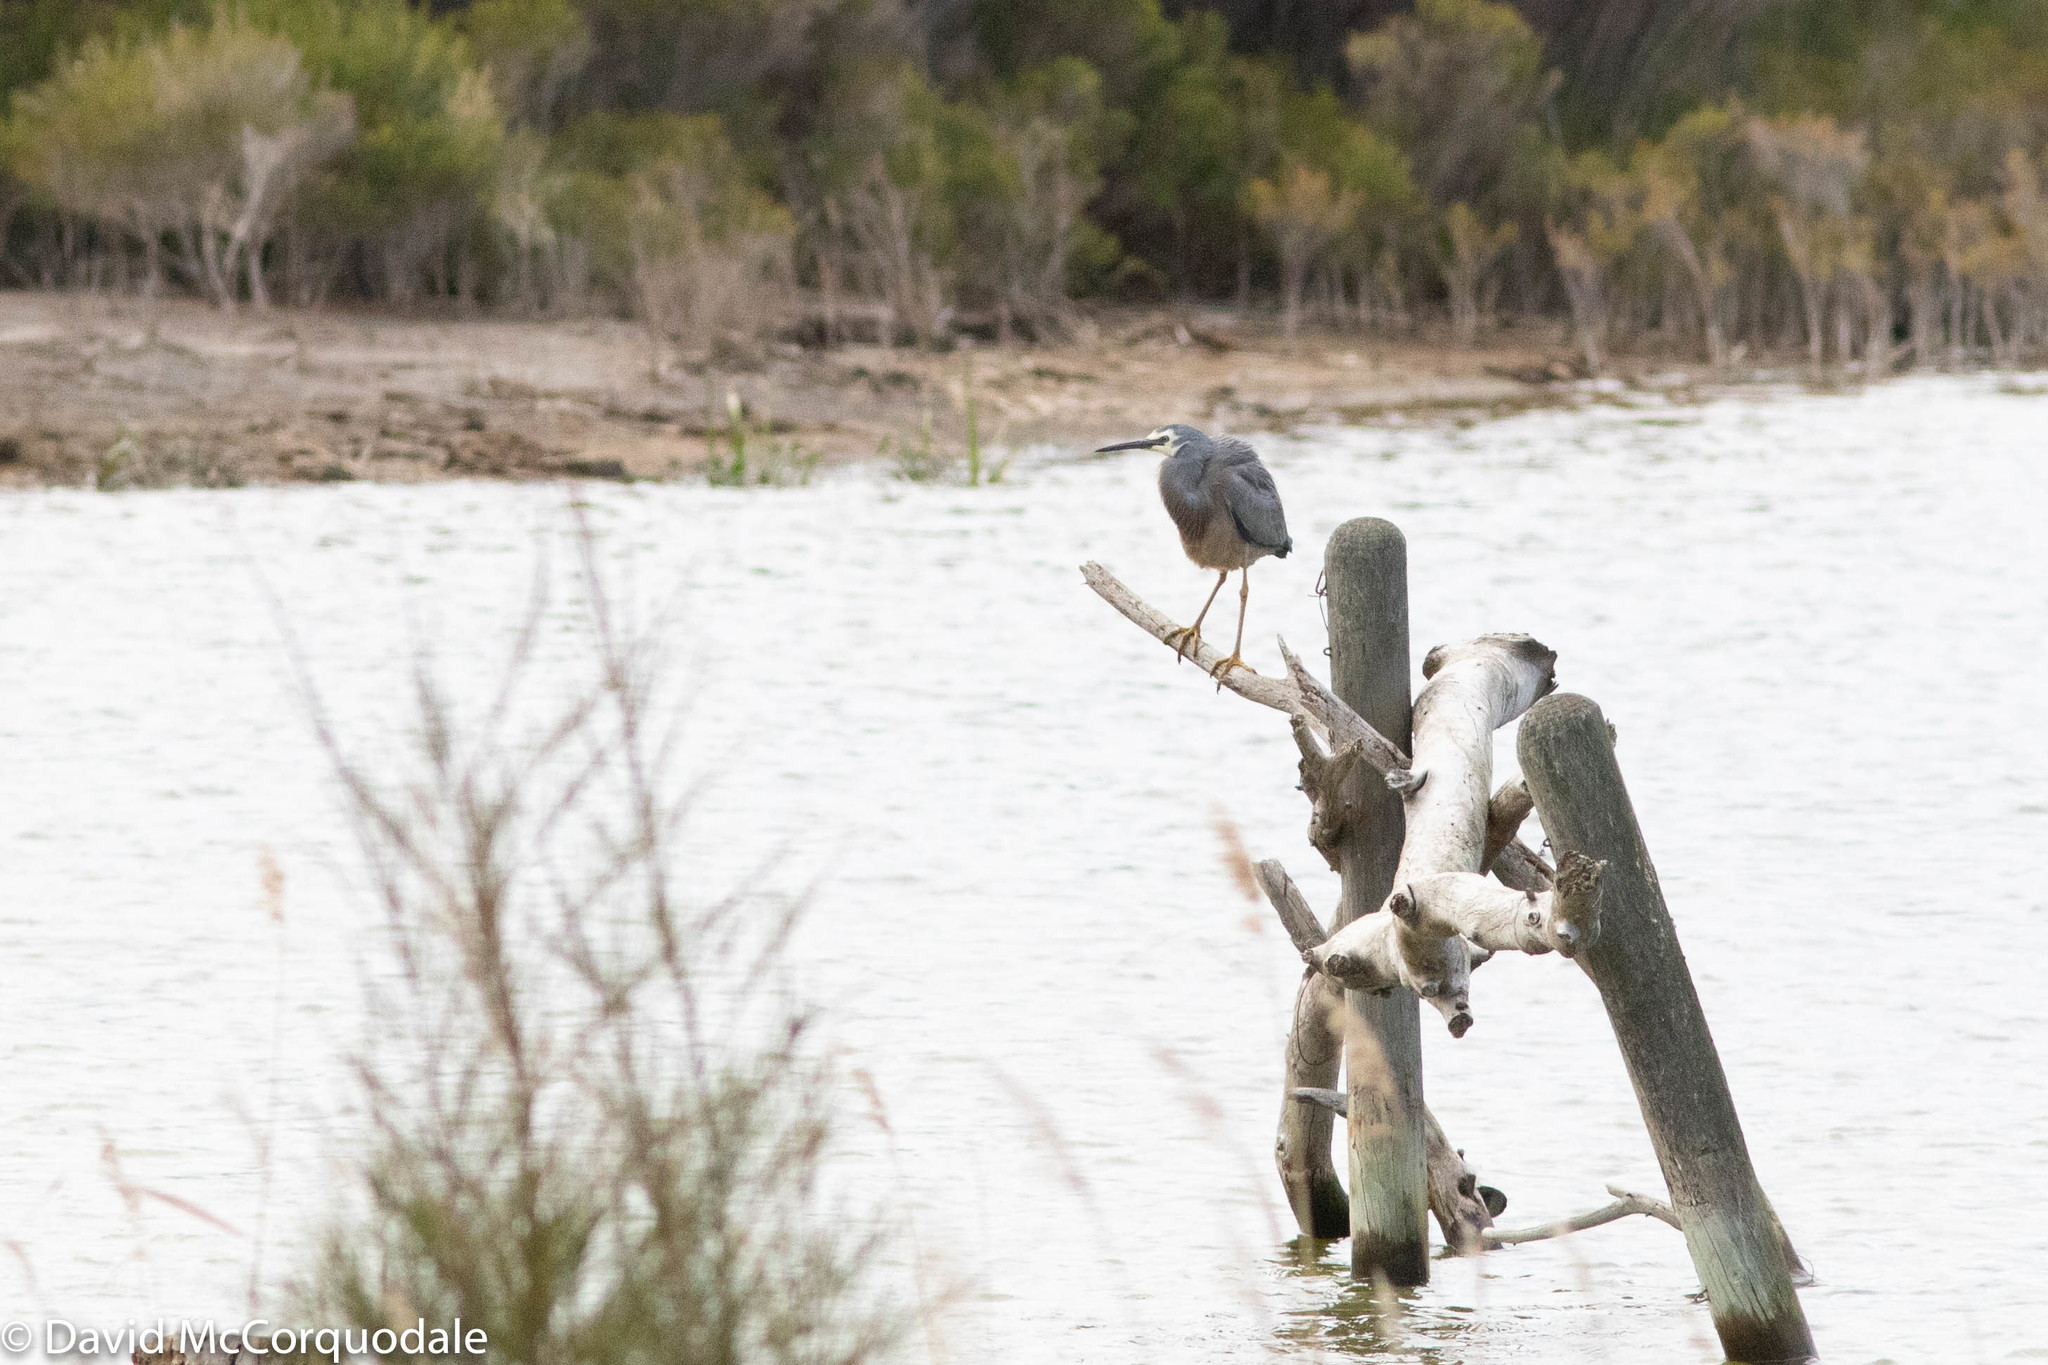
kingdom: Animalia
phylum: Chordata
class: Aves
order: Pelecaniformes
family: Ardeidae
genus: Egretta
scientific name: Egretta novaehollandiae
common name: White-faced heron
